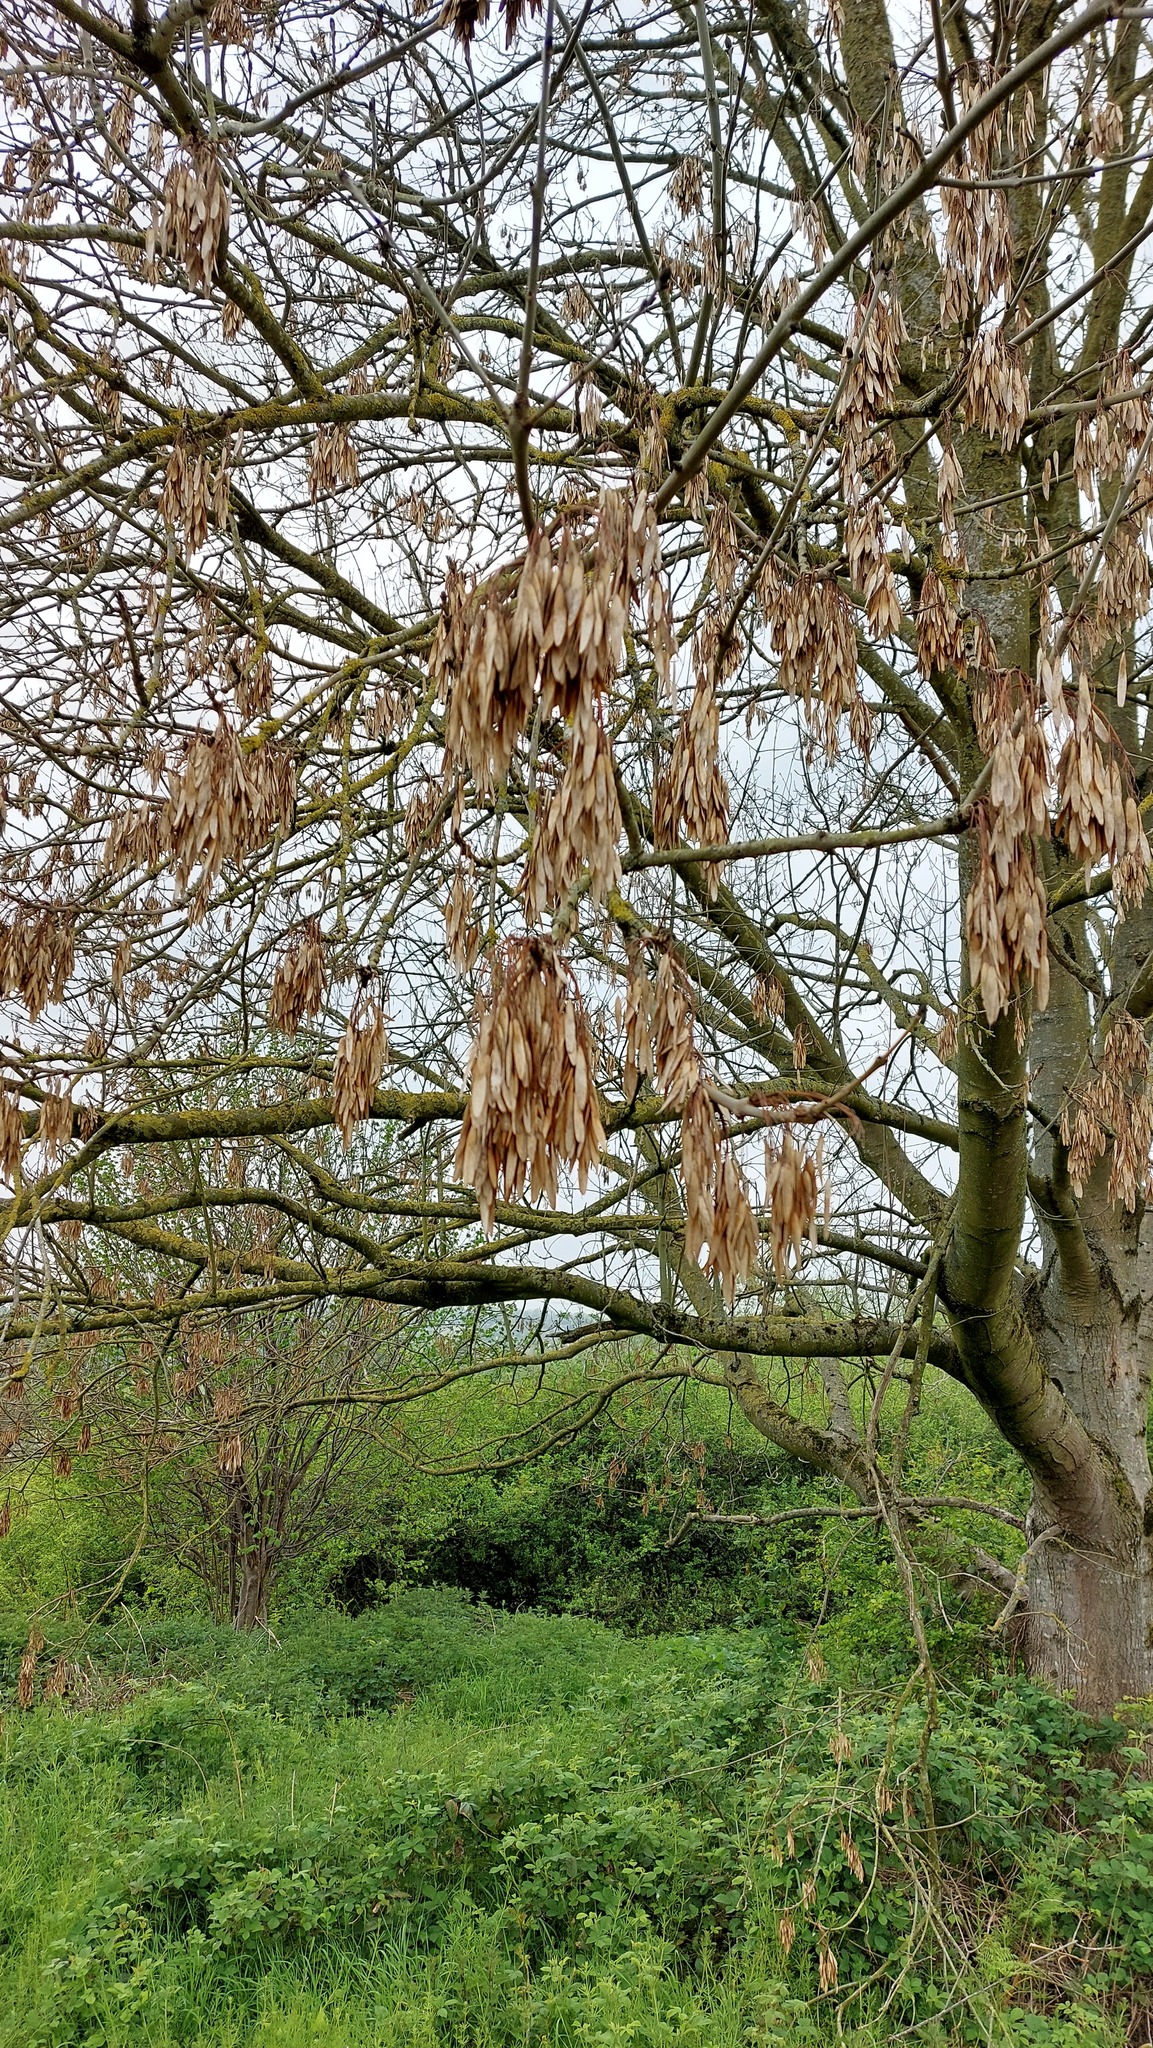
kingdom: Plantae
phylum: Tracheophyta
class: Magnoliopsida
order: Lamiales
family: Oleaceae
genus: Fraxinus
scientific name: Fraxinus excelsior
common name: European ash
